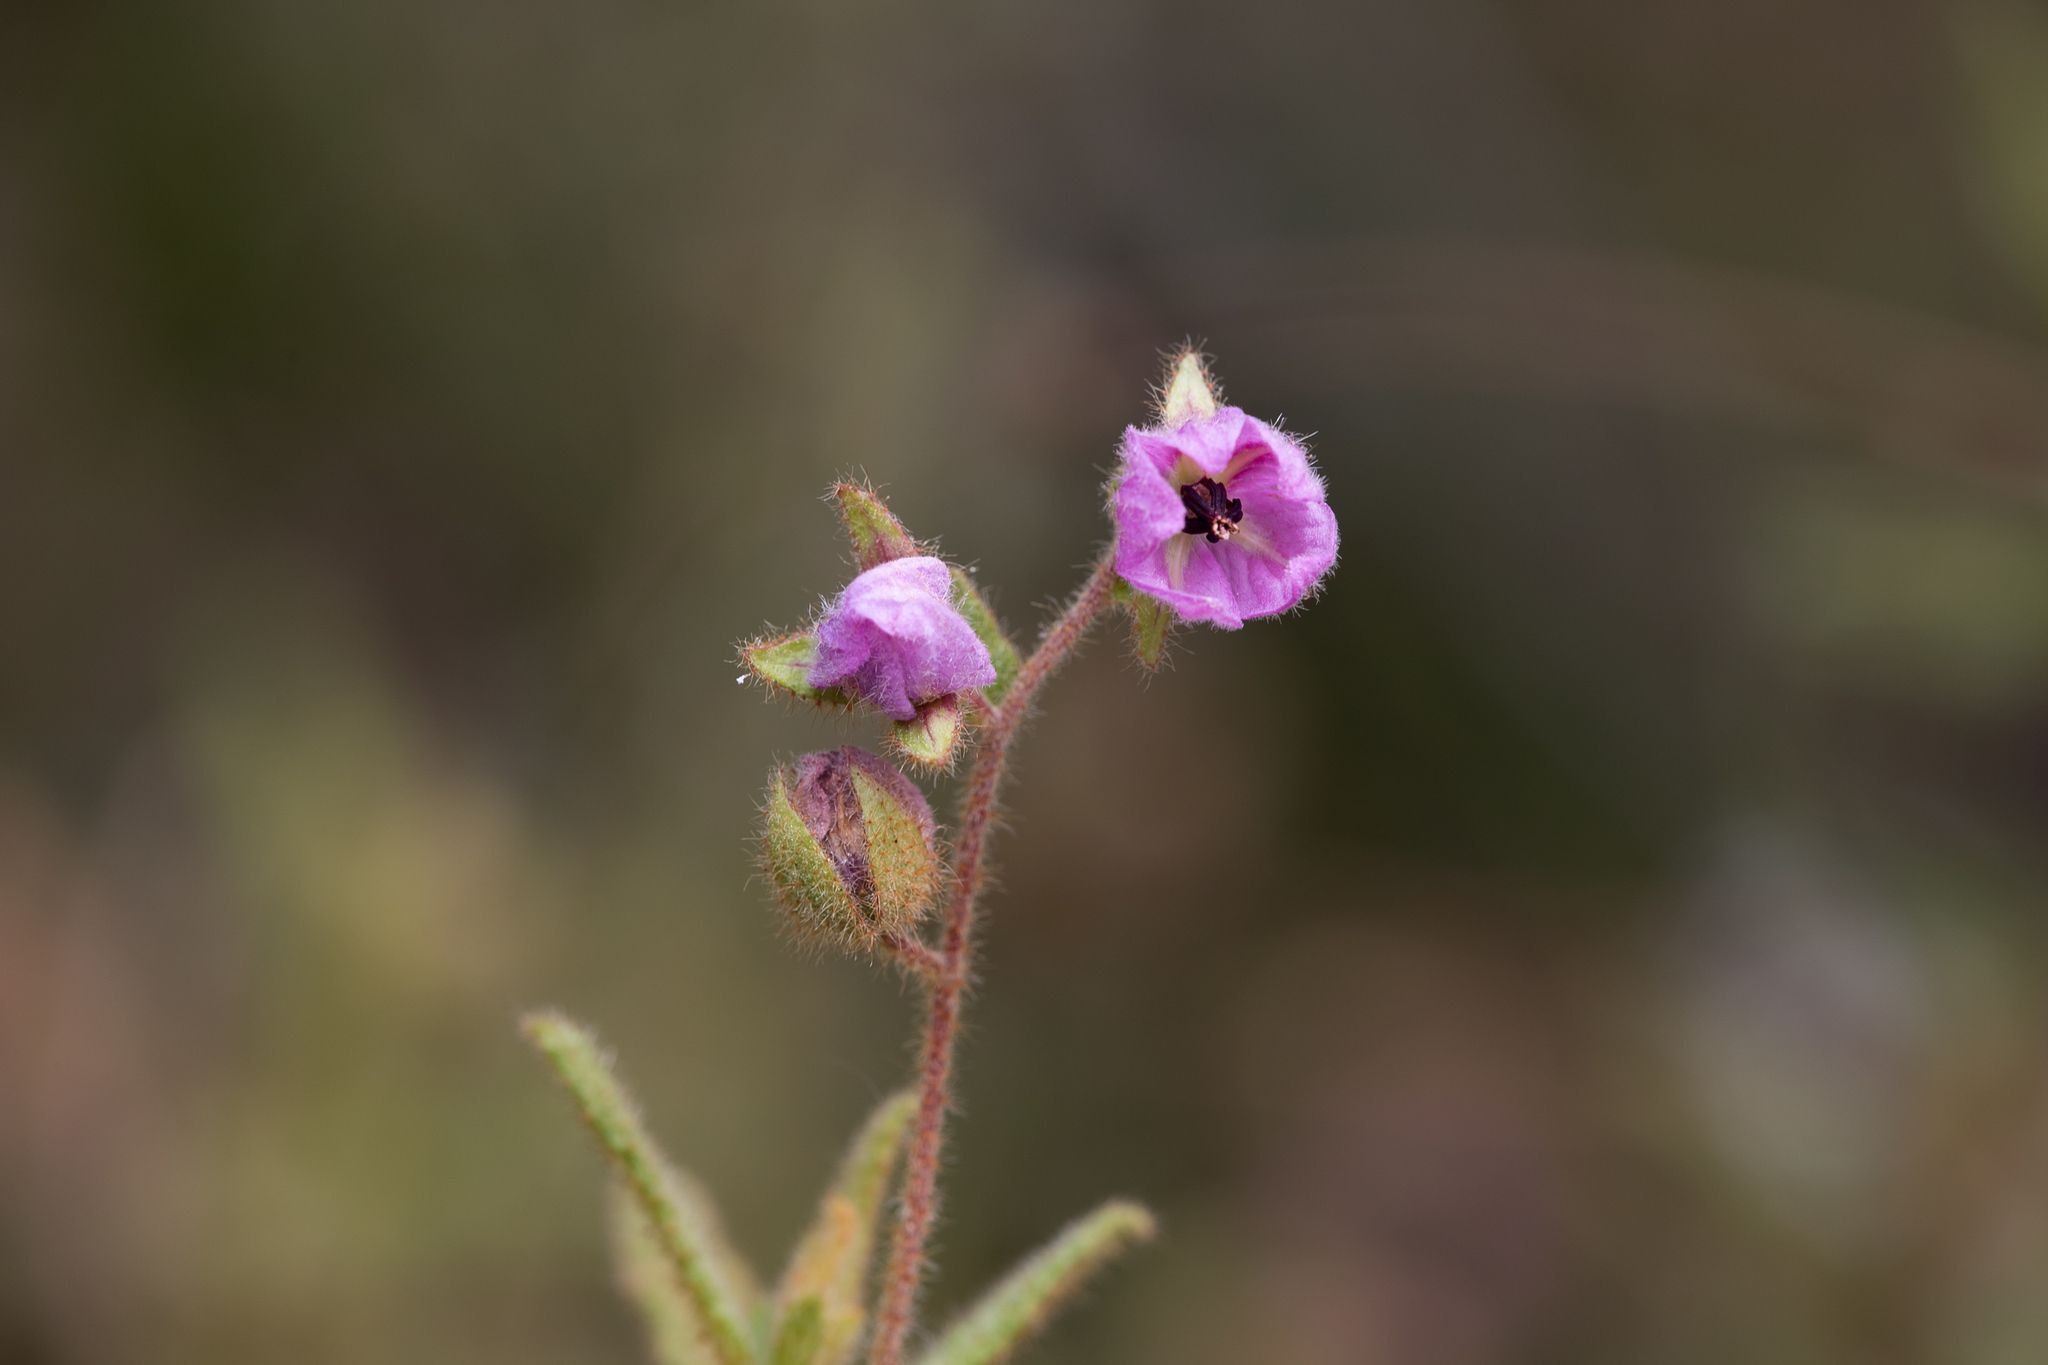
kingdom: Plantae
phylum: Tracheophyta
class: Magnoliopsida
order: Malvales
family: Malvaceae
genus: Thomasia
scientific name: Thomasia petalocalyx
